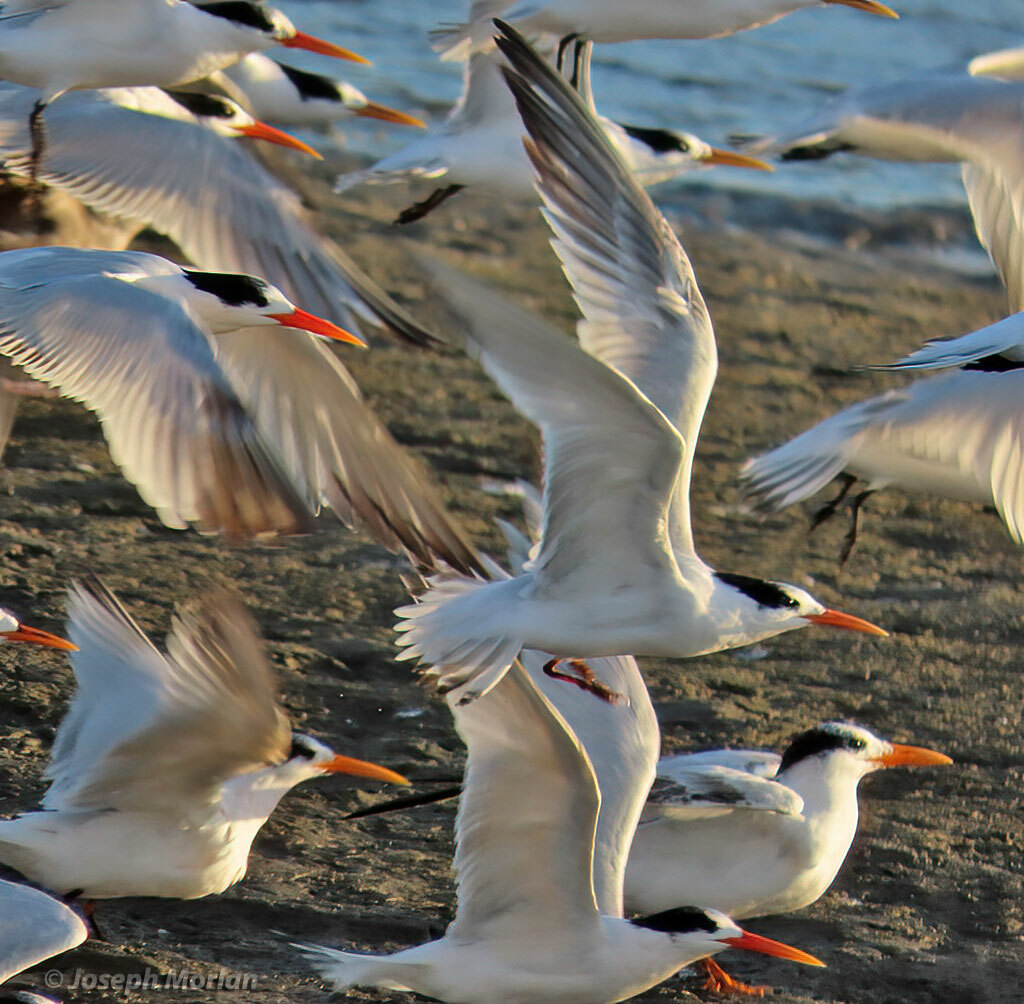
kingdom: Animalia
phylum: Chordata
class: Aves
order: Charadriiformes
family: Laridae
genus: Thalasseus
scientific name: Thalasseus elegans
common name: Elegant tern
